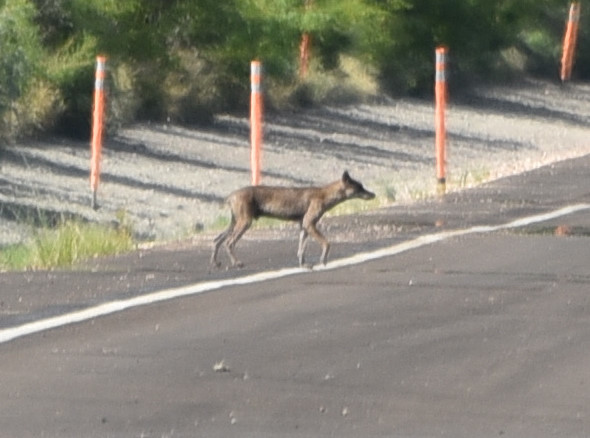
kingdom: Animalia
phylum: Chordata
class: Mammalia
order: Carnivora
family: Canidae
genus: Canis
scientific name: Canis latrans
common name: Coyote
